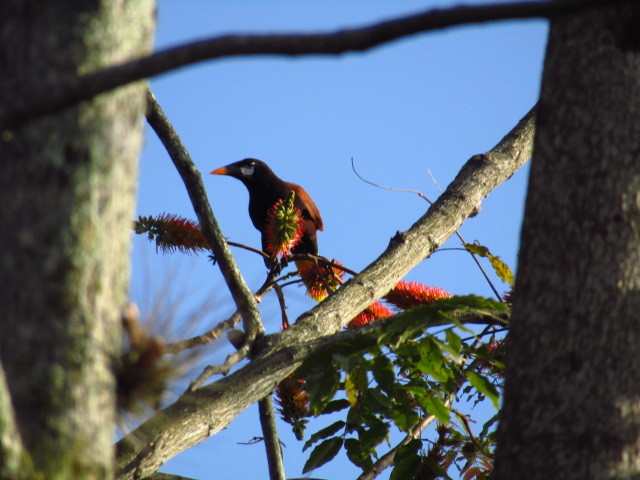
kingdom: Animalia
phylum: Chordata
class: Aves
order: Passeriformes
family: Icteridae
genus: Psarocolius
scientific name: Psarocolius montezuma
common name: Montezuma oropendola
